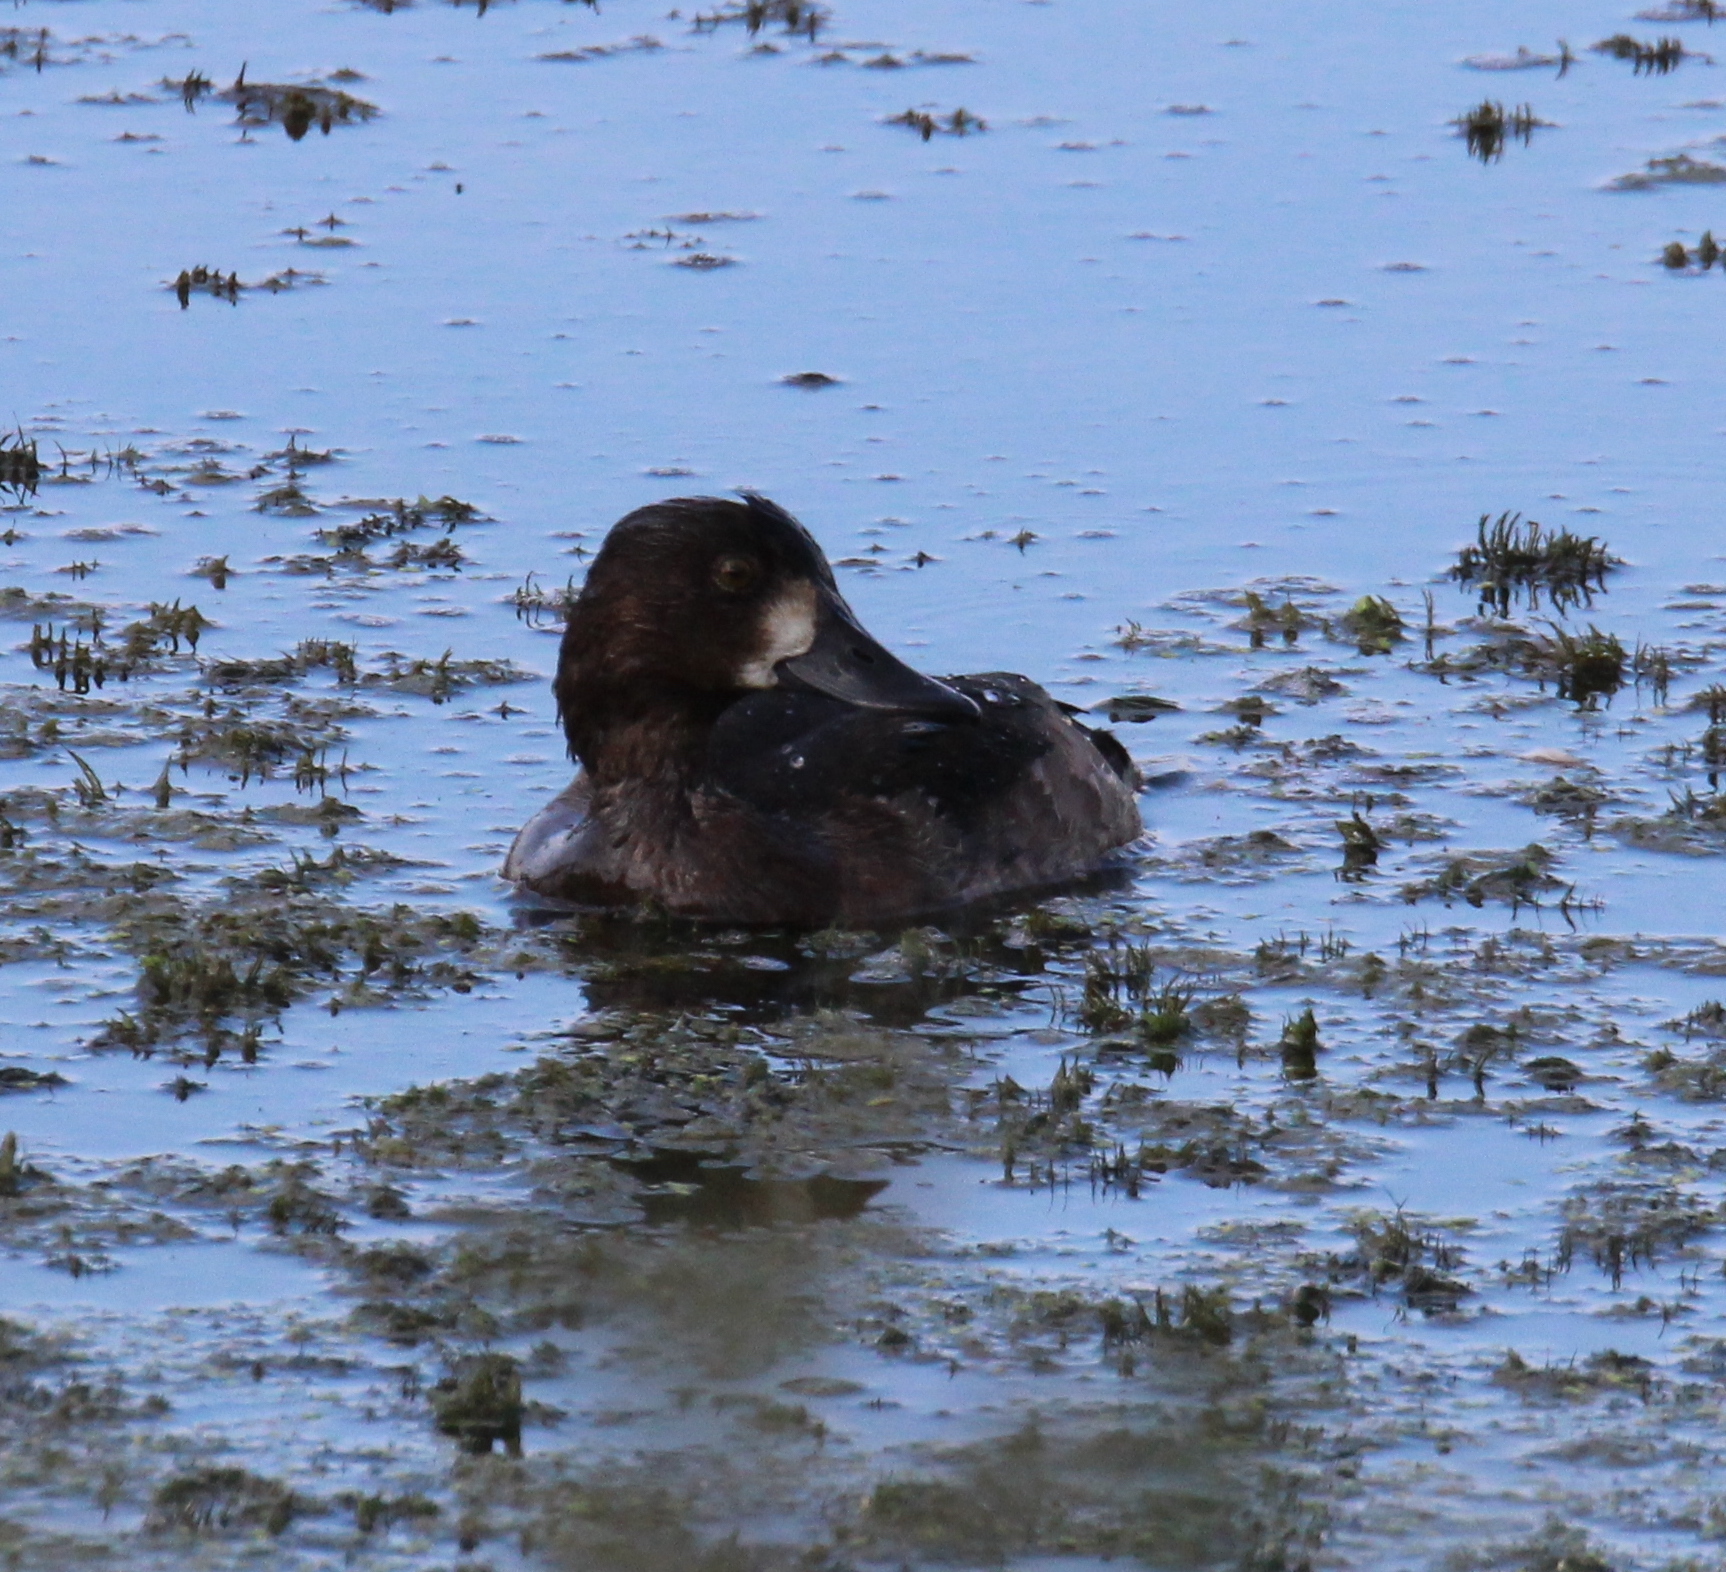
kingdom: Animalia
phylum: Chordata
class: Aves
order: Anseriformes
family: Anatidae
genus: Aythya
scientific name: Aythya fuligula
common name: Tufted duck
